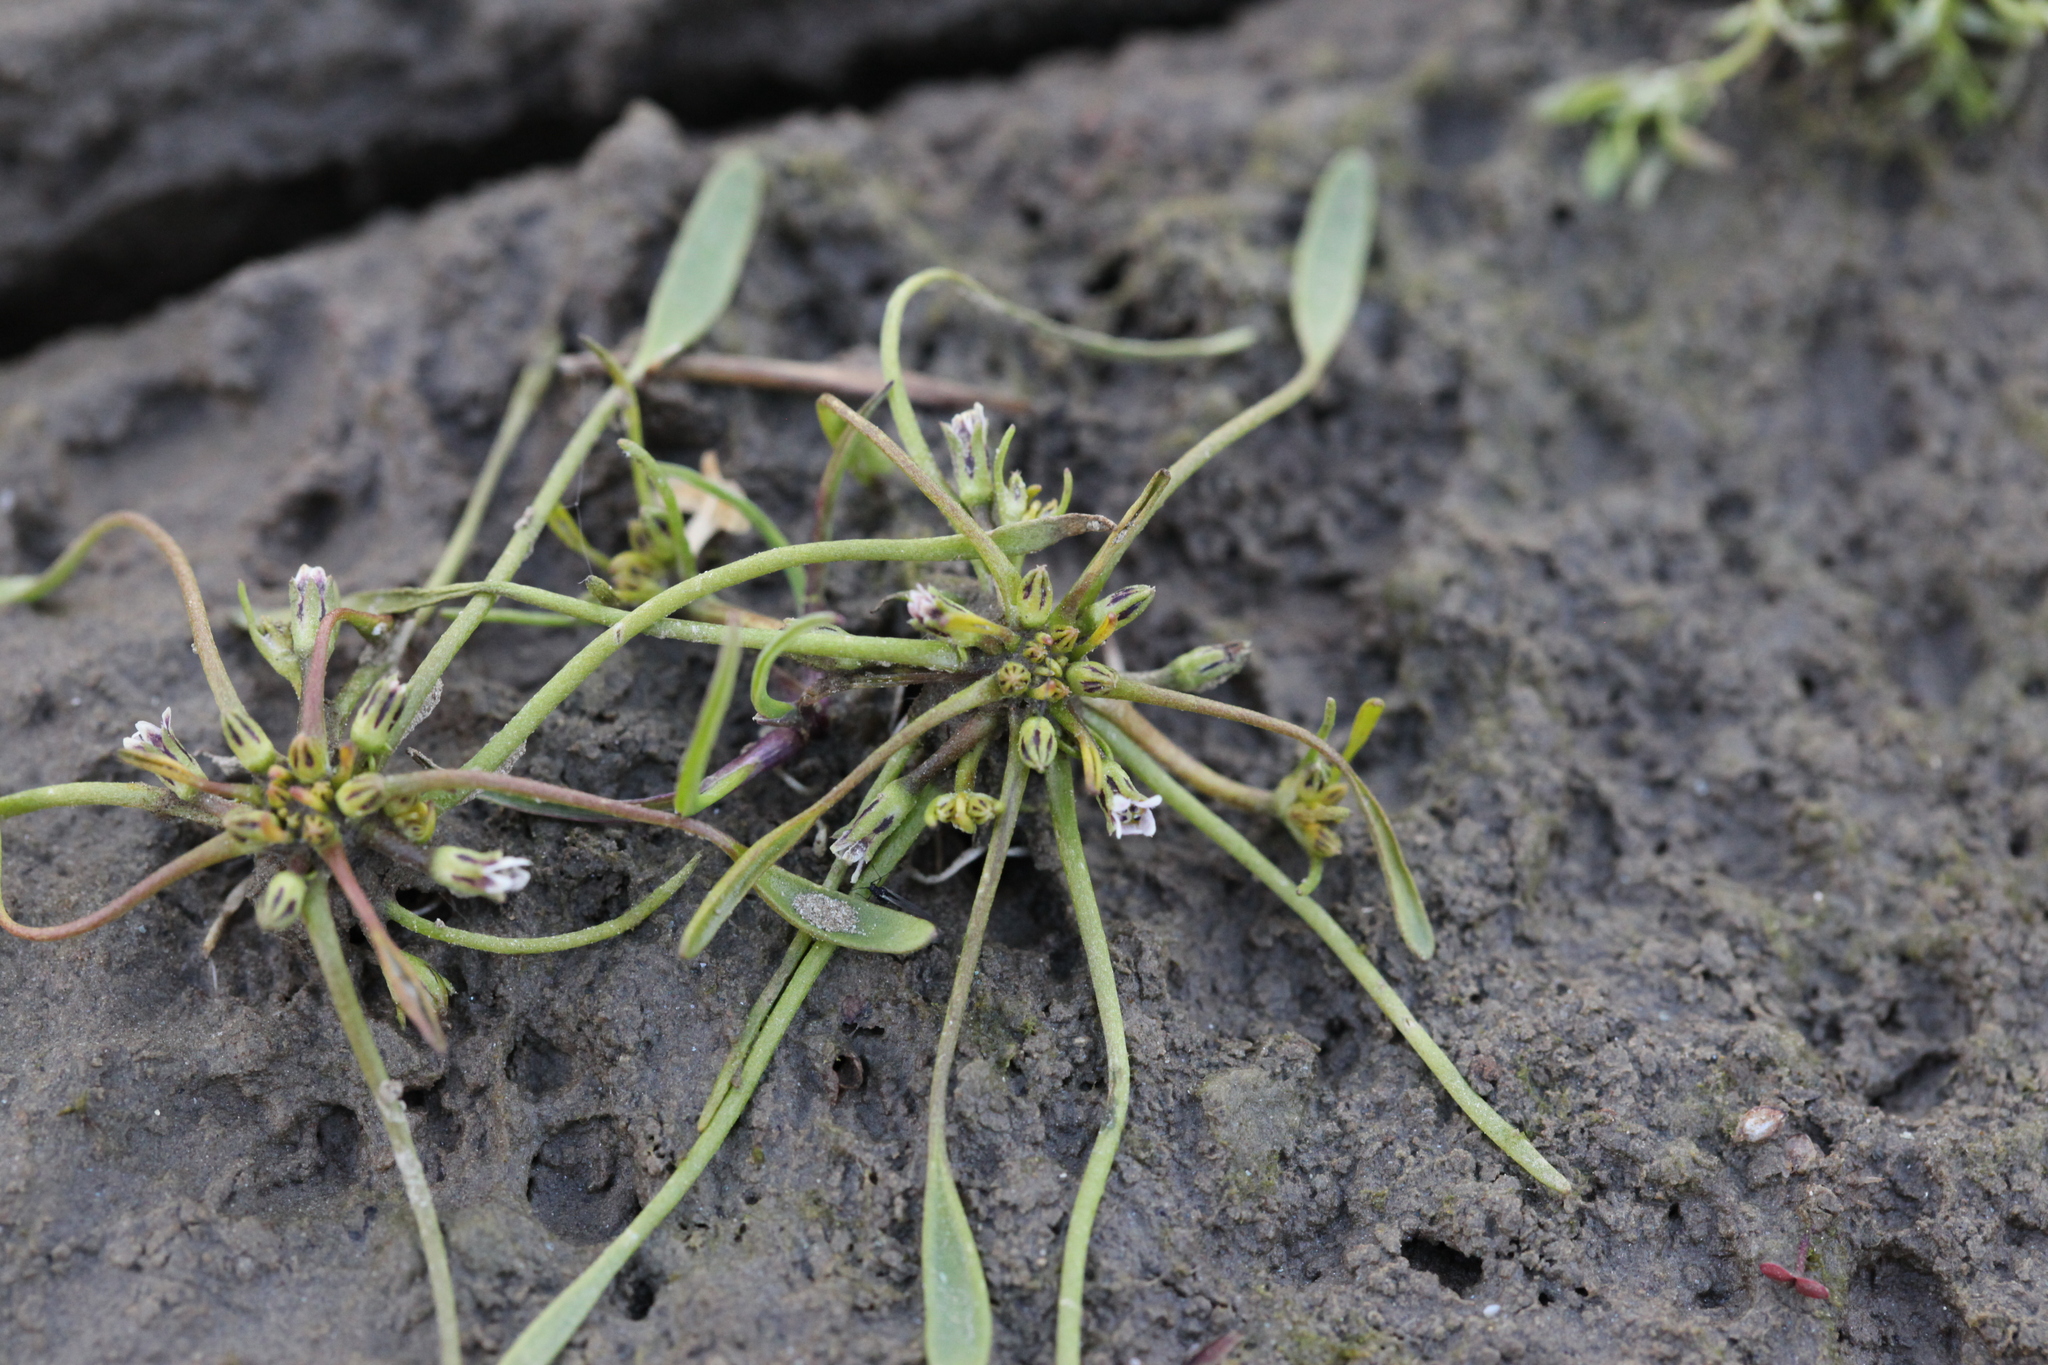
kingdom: Plantae
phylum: Tracheophyta
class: Magnoliopsida
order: Lamiales
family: Scrophulariaceae
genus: Limosella
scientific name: Limosella aquatica
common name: Mudwort
